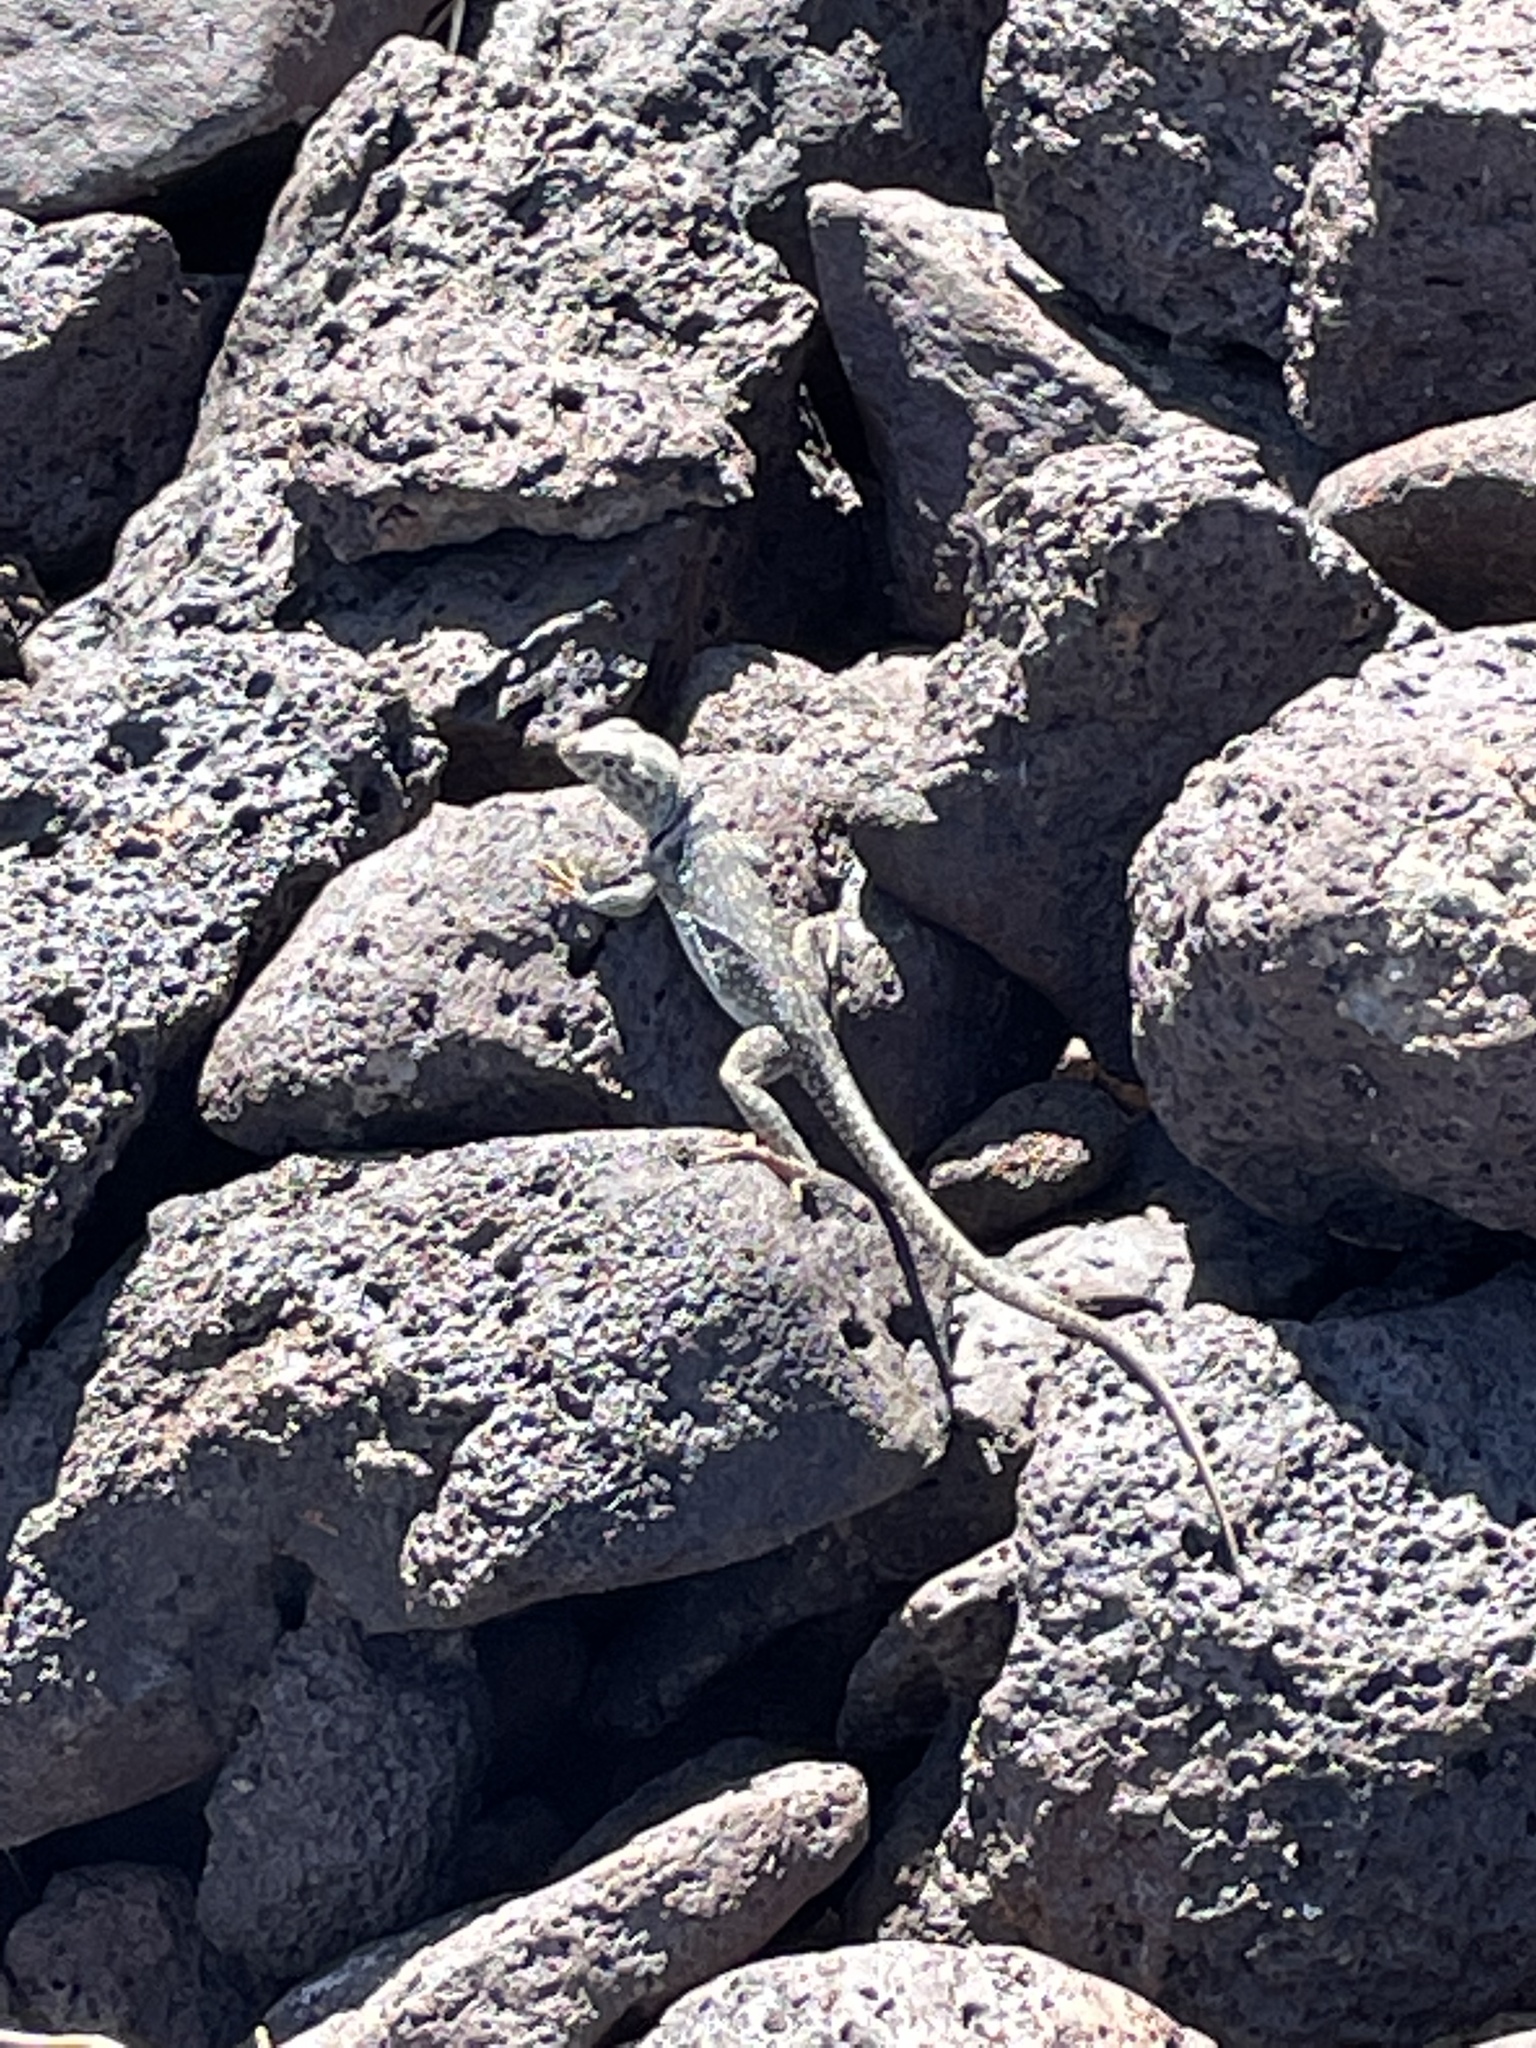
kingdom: Animalia
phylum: Chordata
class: Squamata
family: Crotaphytidae
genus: Crotaphytus
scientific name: Crotaphytus bicinctores
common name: Mojave black-collared lizard
